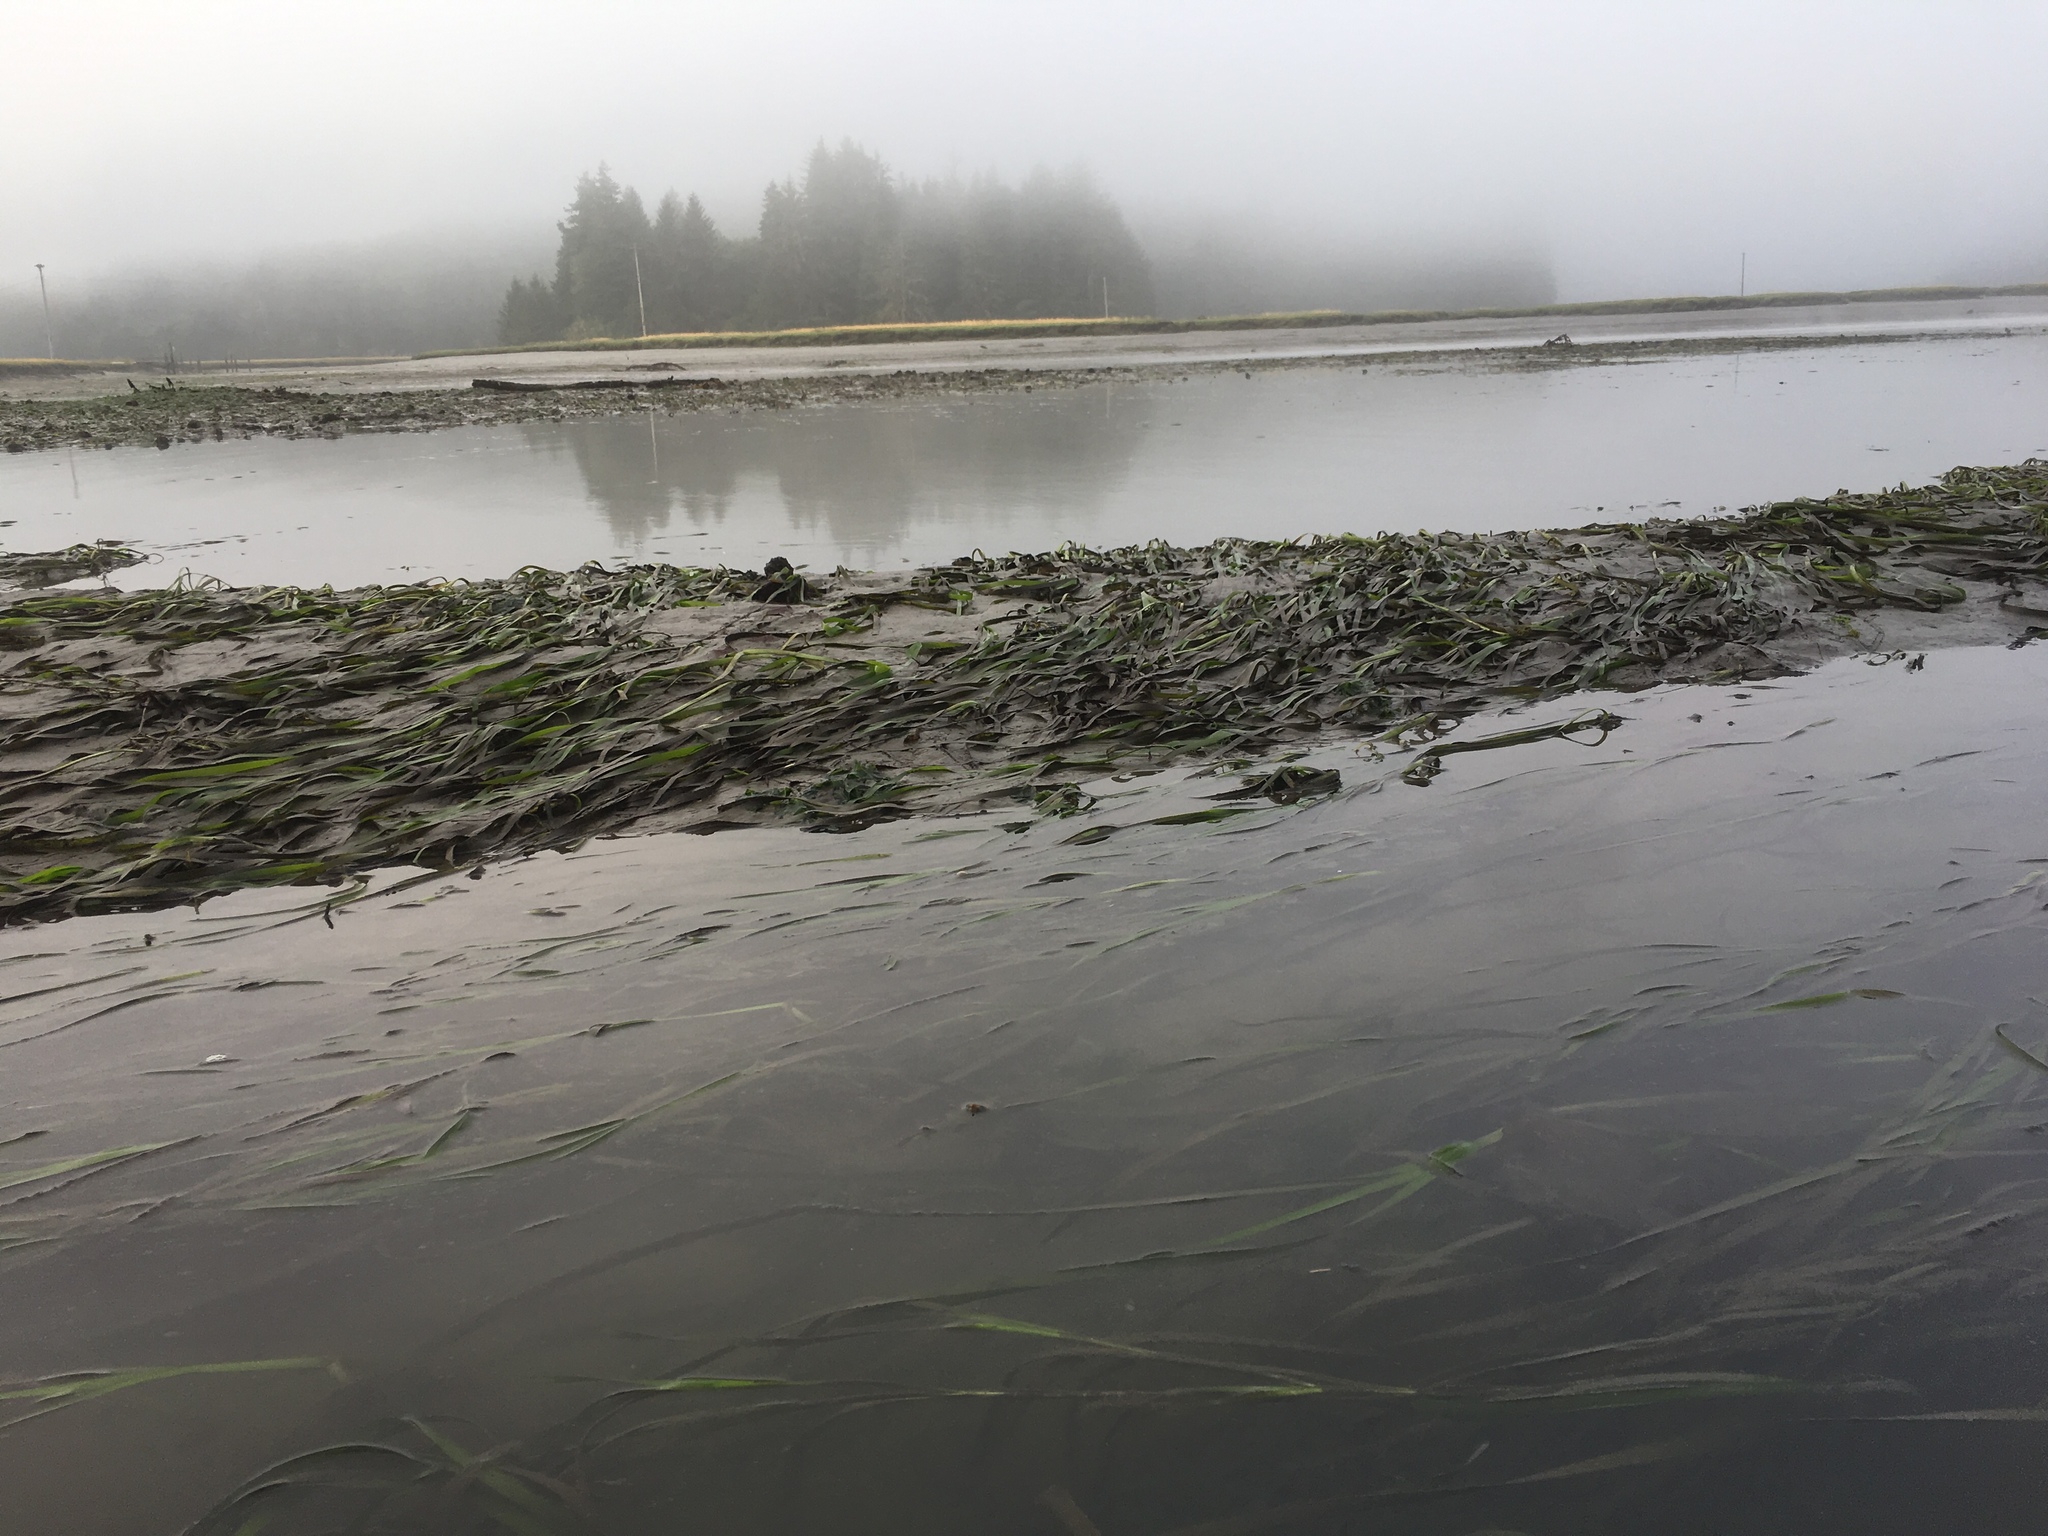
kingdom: Plantae
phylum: Tracheophyta
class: Liliopsida
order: Alismatales
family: Zosteraceae
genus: Zostera
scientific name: Zostera marina
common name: Eelgrass
